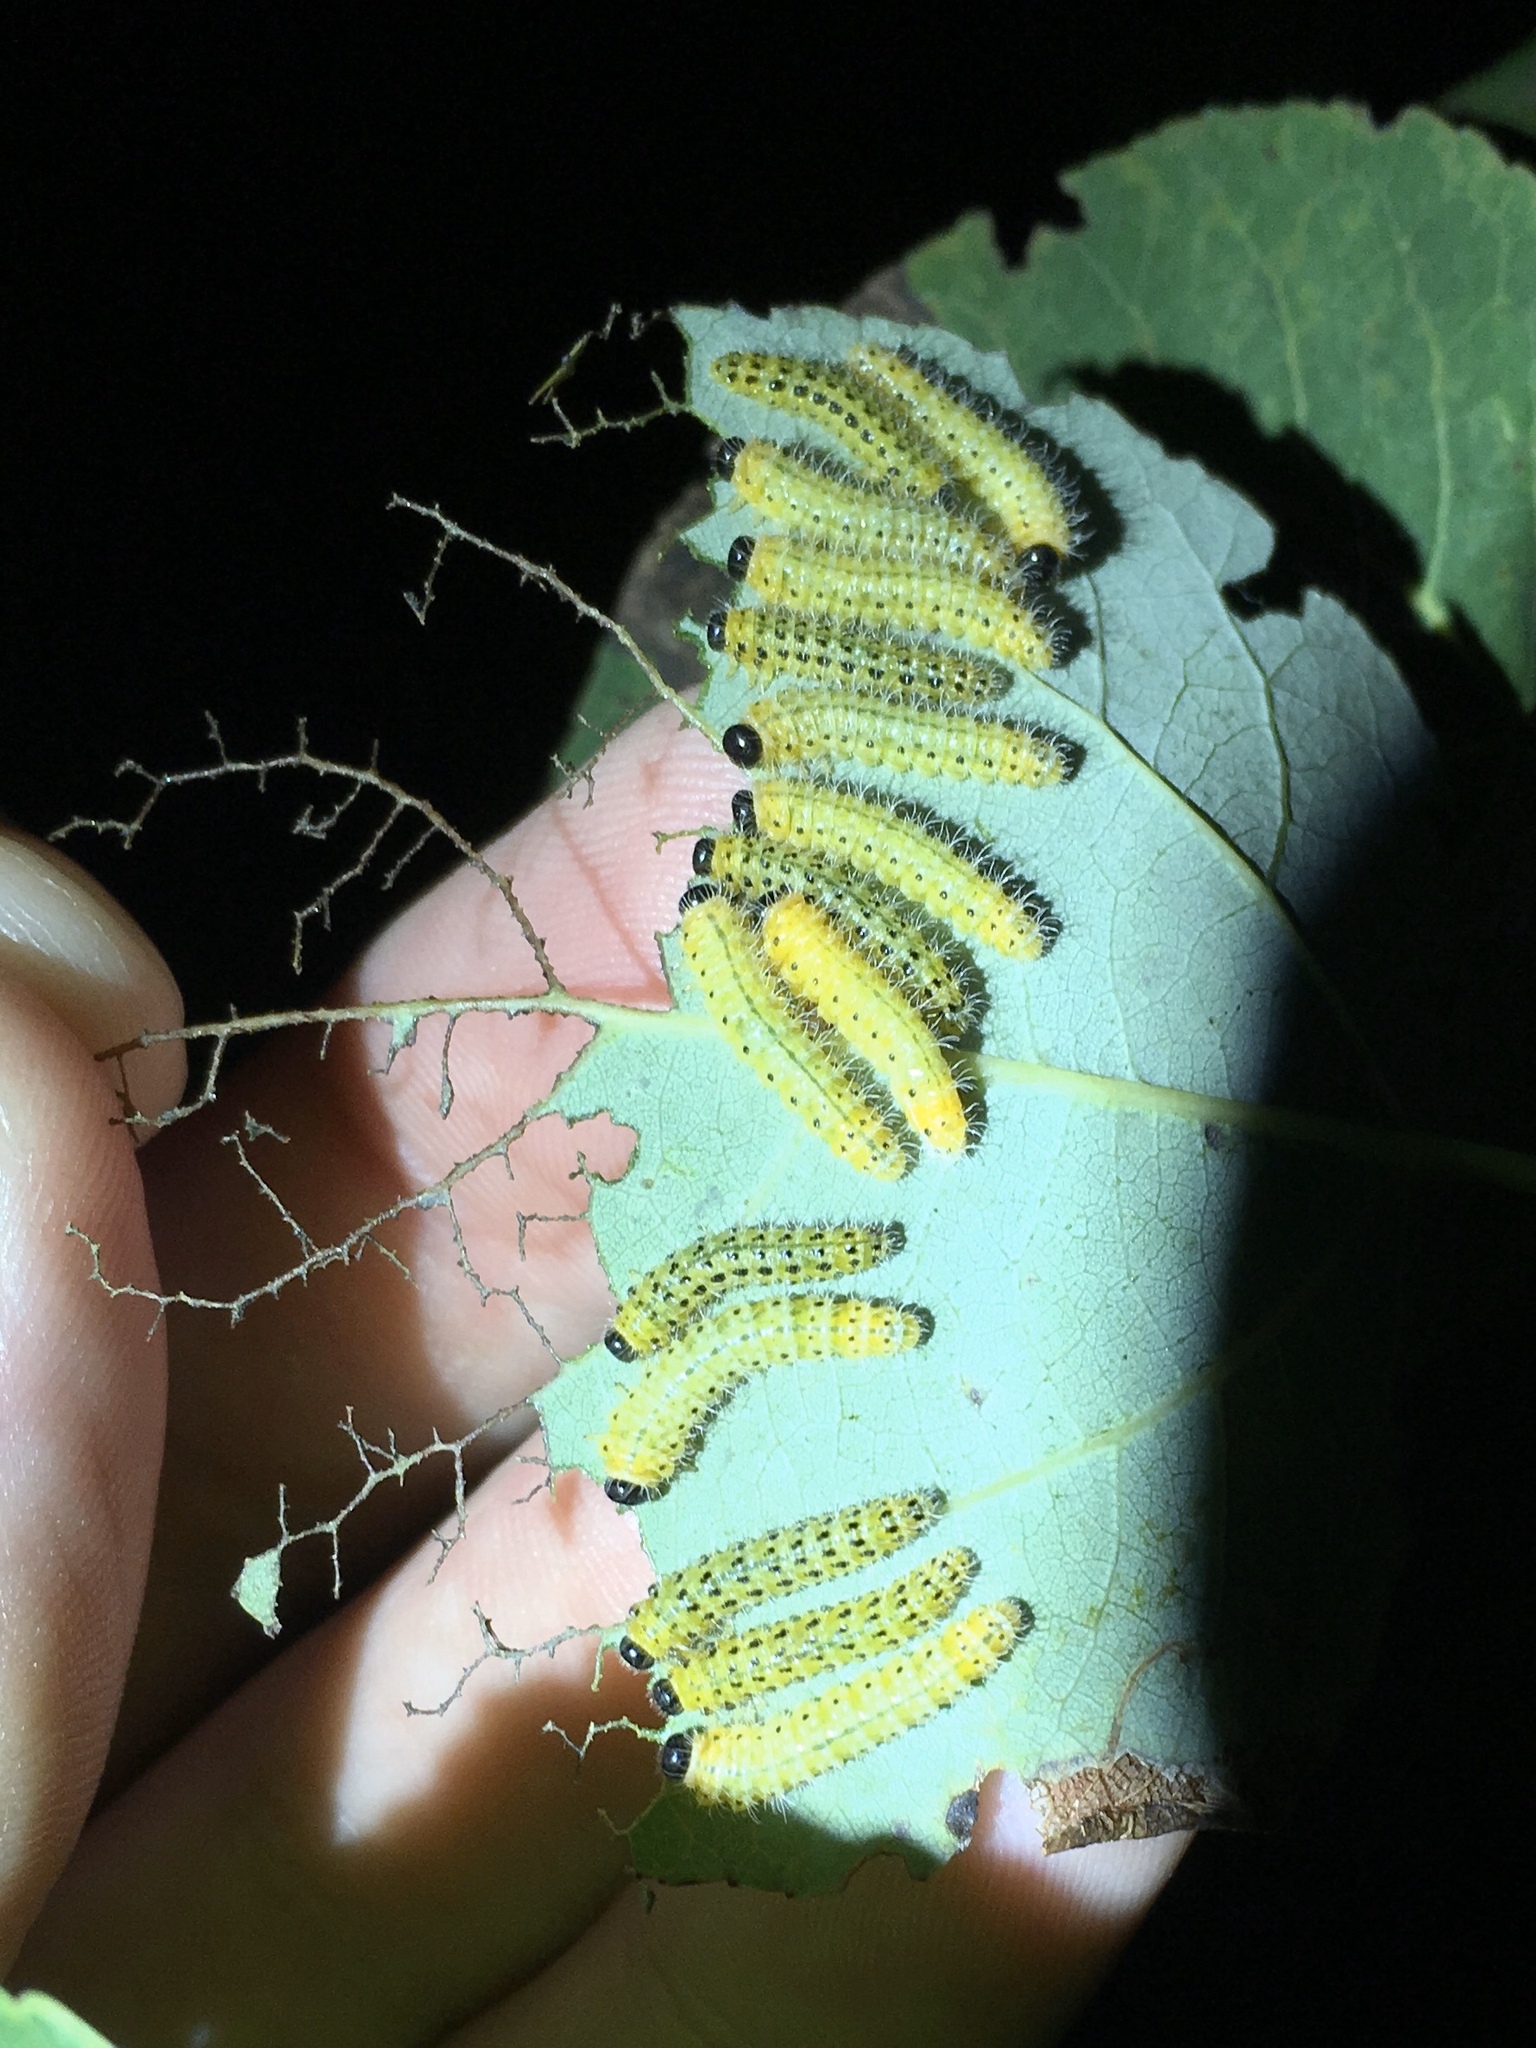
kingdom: Animalia
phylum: Arthropoda
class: Insecta
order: Hymenoptera
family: Tenthredinidae
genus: Cladius
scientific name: Cladius grandis
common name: Common sawfly
